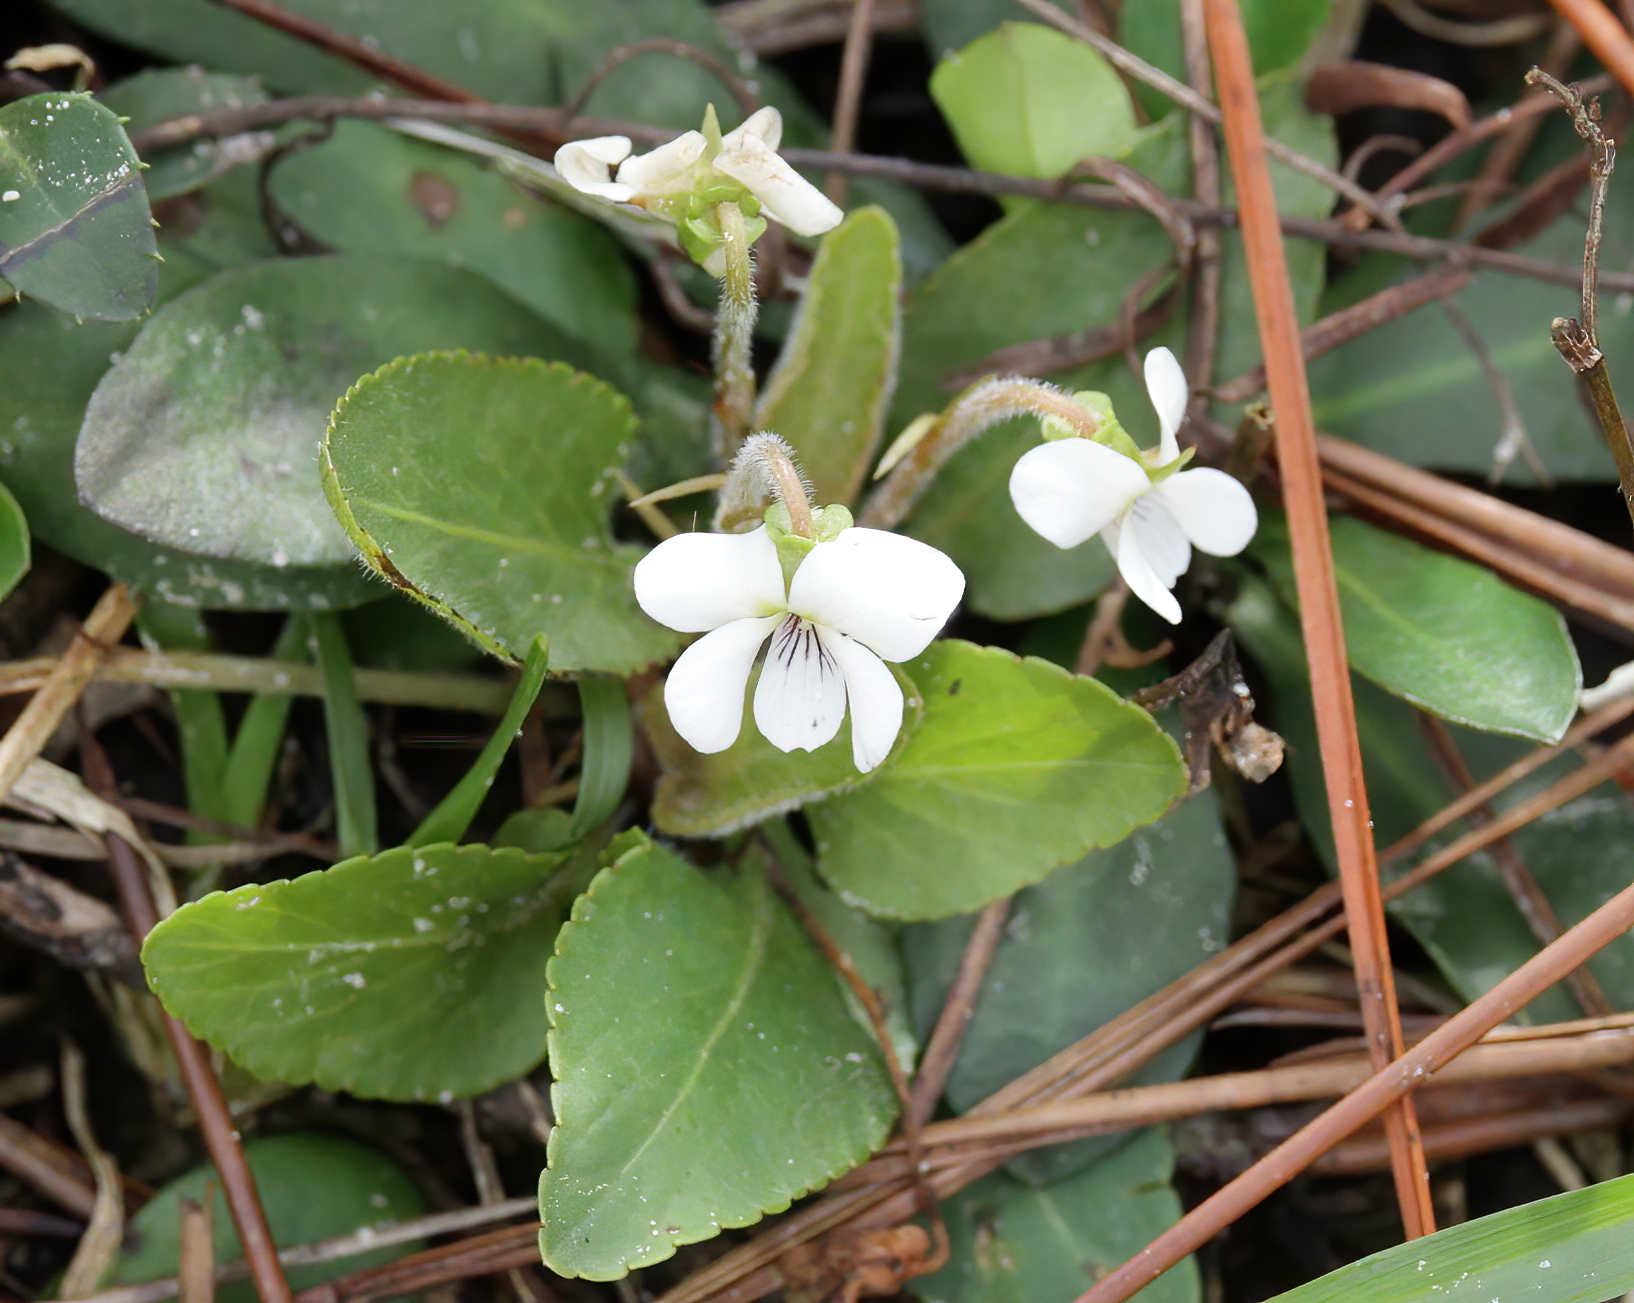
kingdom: Plantae
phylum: Tracheophyta
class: Magnoliopsida
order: Malpighiales
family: Violaceae
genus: Viola
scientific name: Viola primulifolia
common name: Primrose-leaf violet
